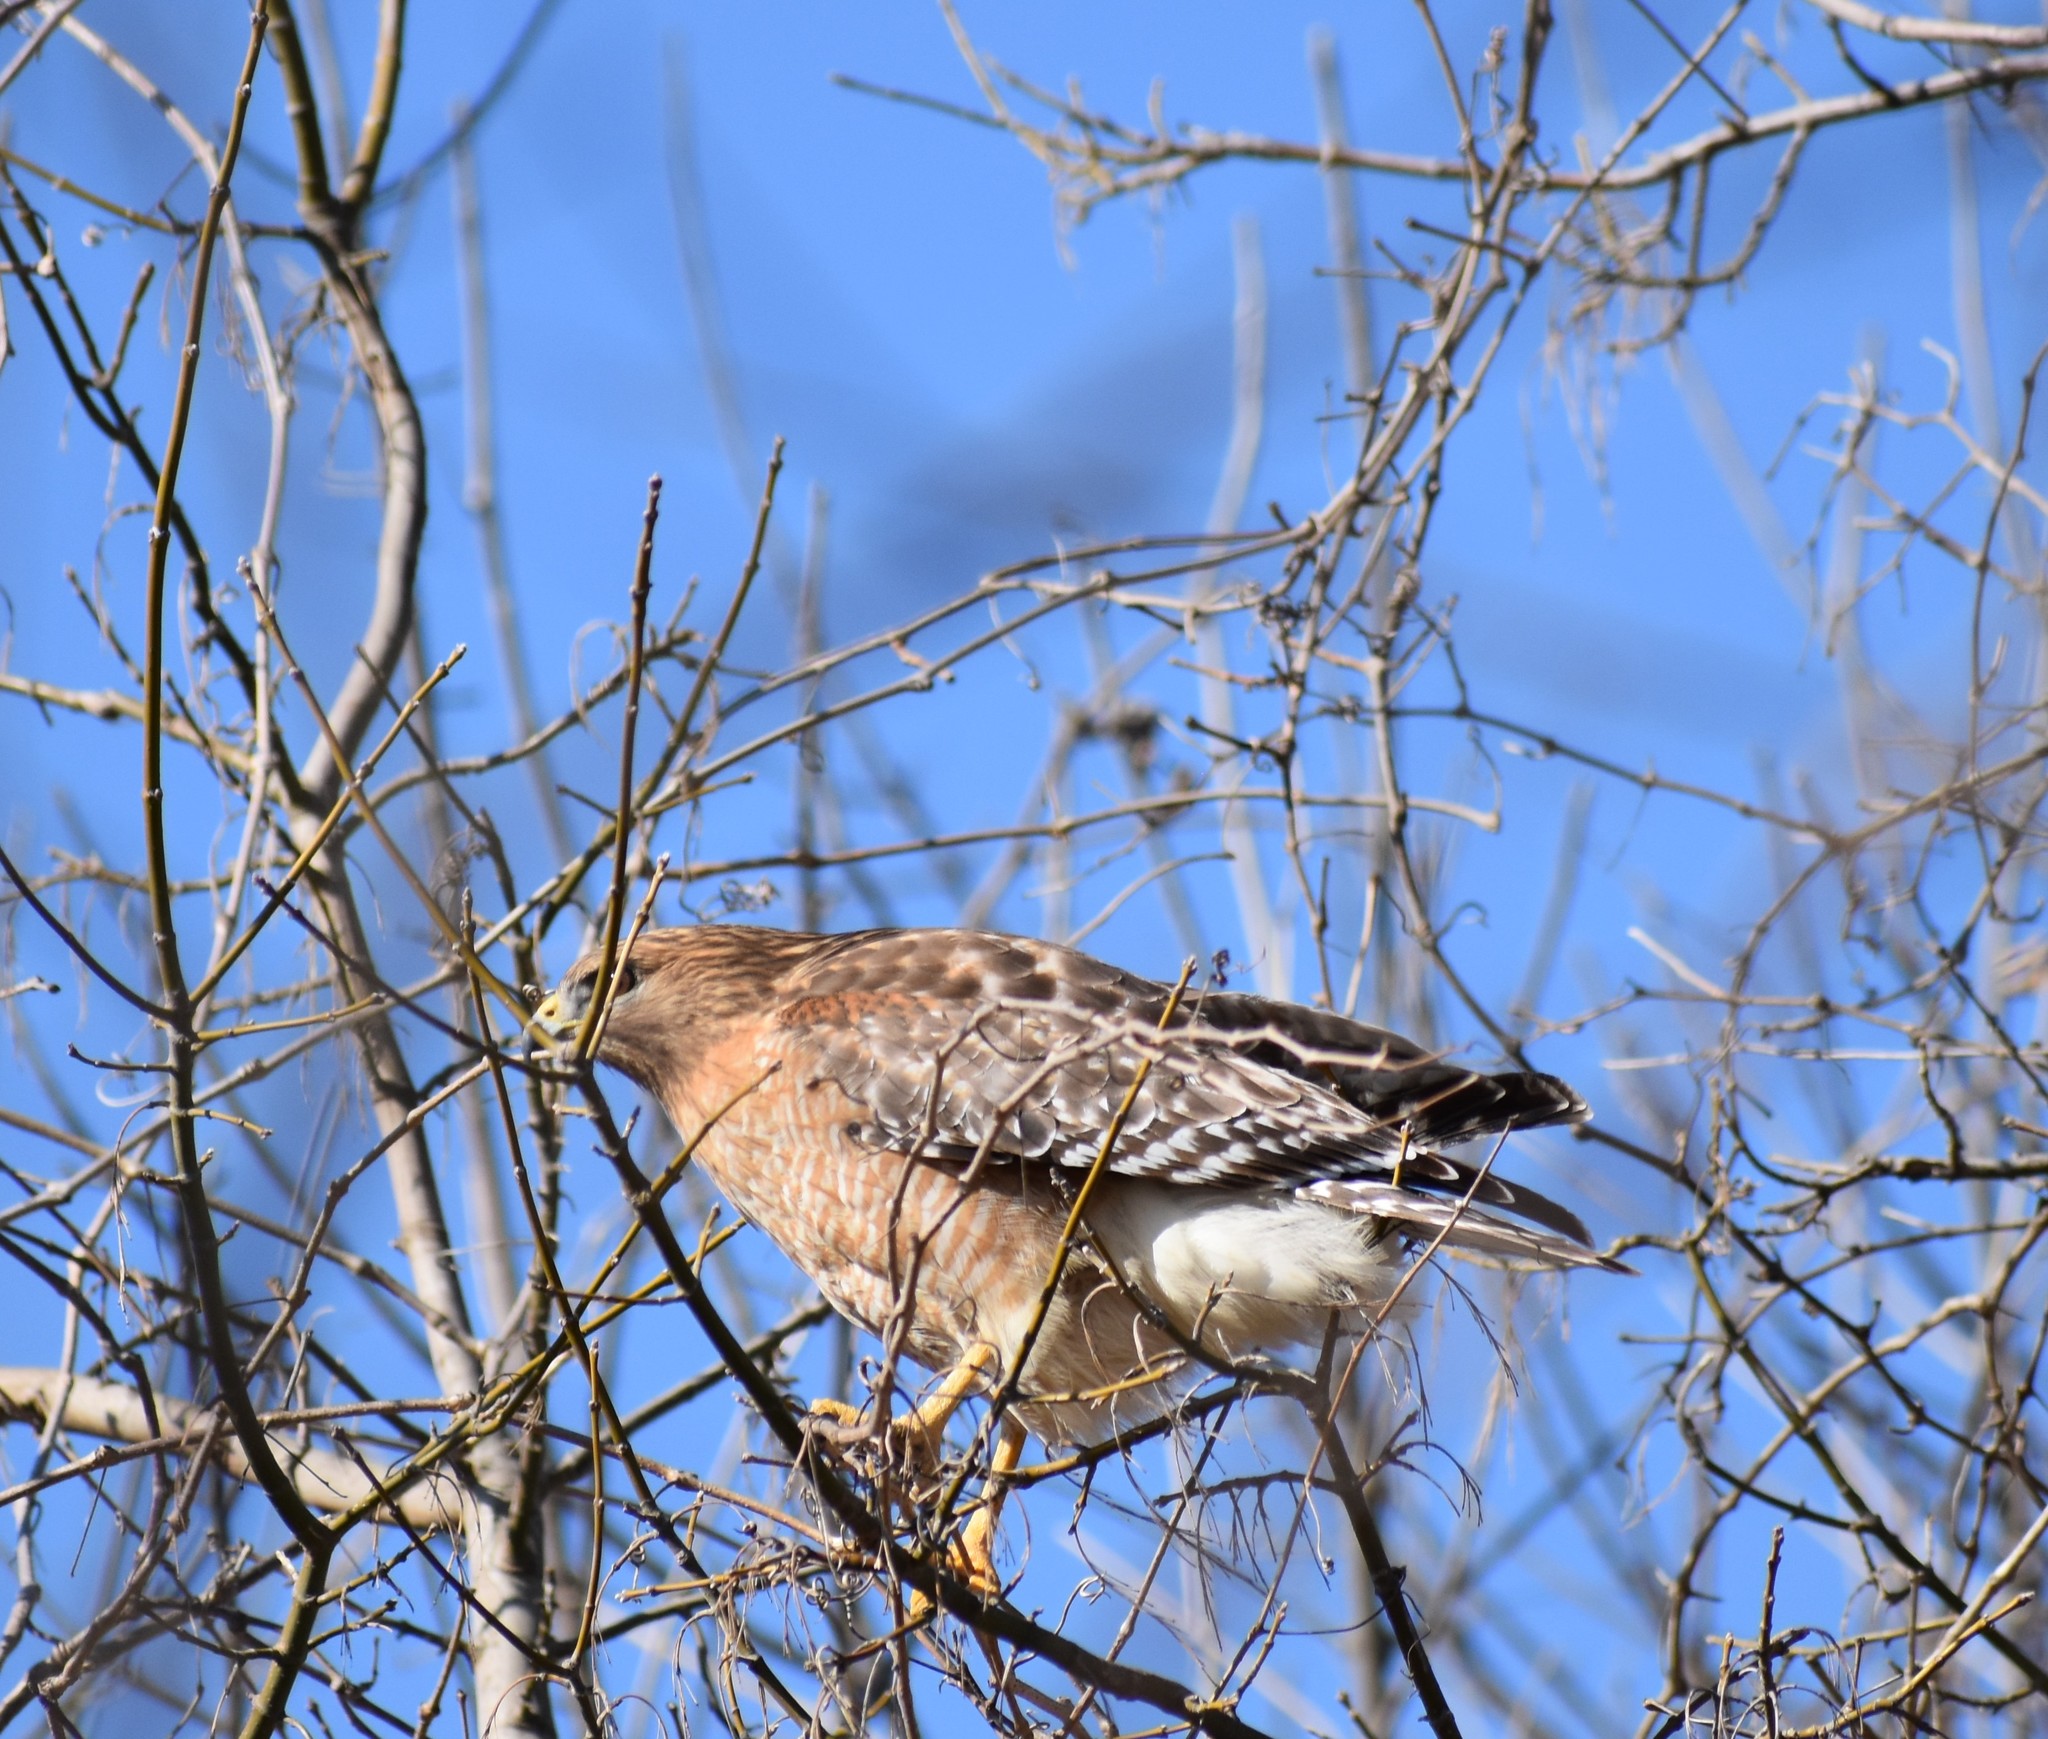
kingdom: Animalia
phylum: Chordata
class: Aves
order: Accipitriformes
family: Accipitridae
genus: Buteo
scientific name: Buteo lineatus
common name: Red-shouldered hawk
